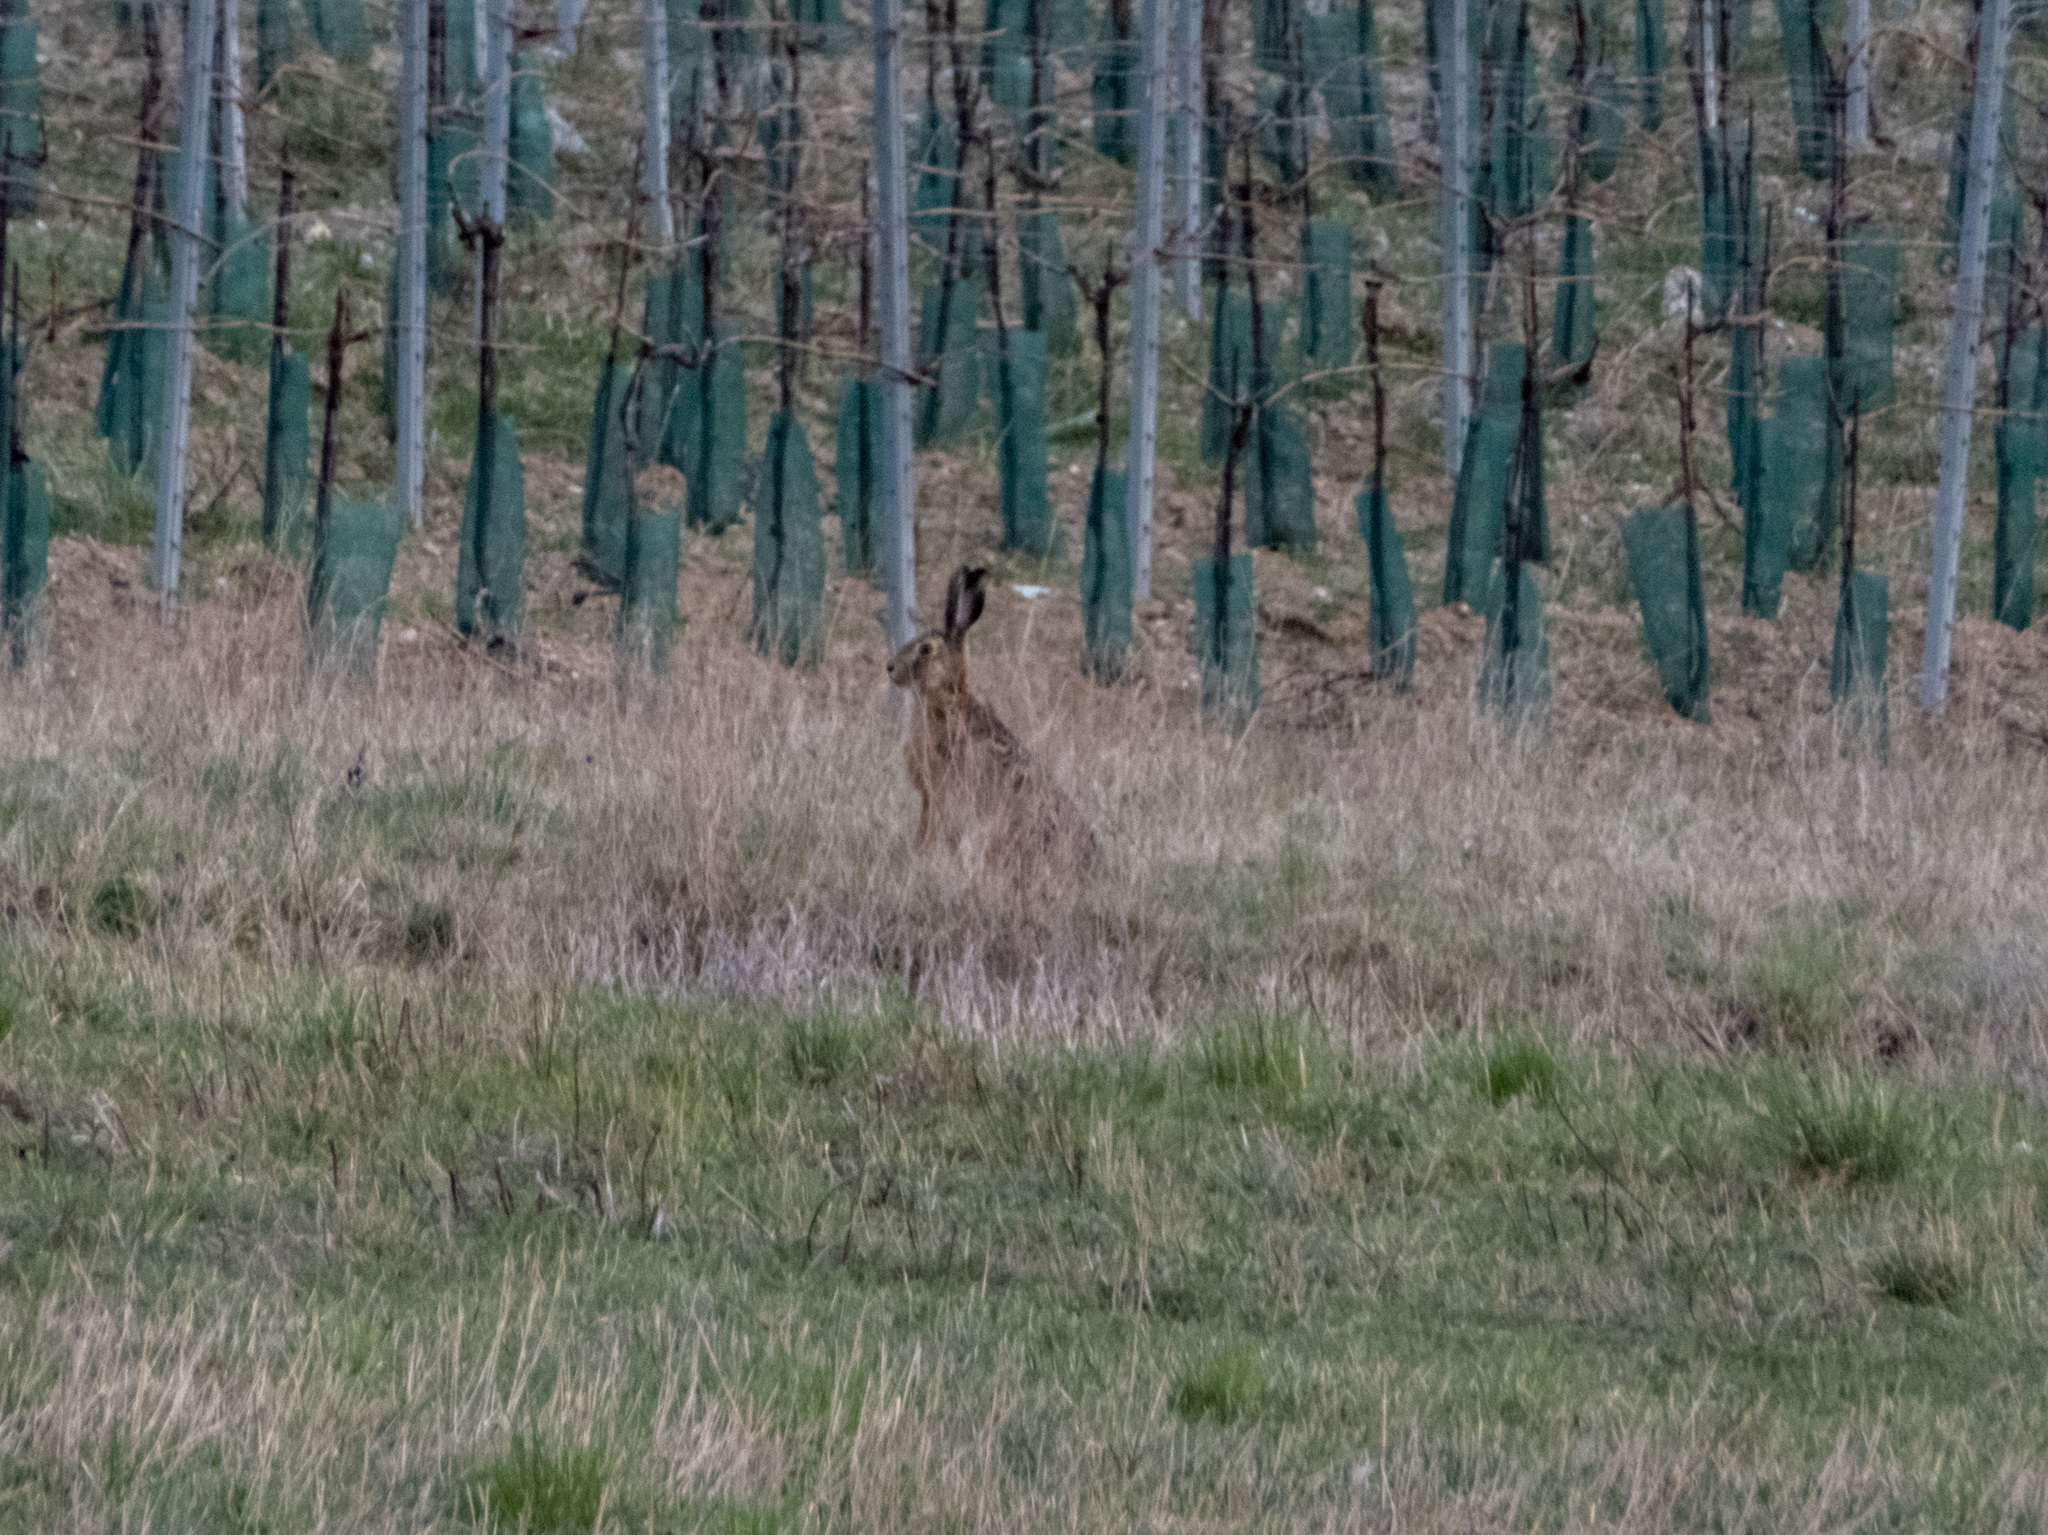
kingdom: Animalia
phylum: Chordata
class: Mammalia
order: Lagomorpha
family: Leporidae
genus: Lepus
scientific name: Lepus europaeus
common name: European hare
